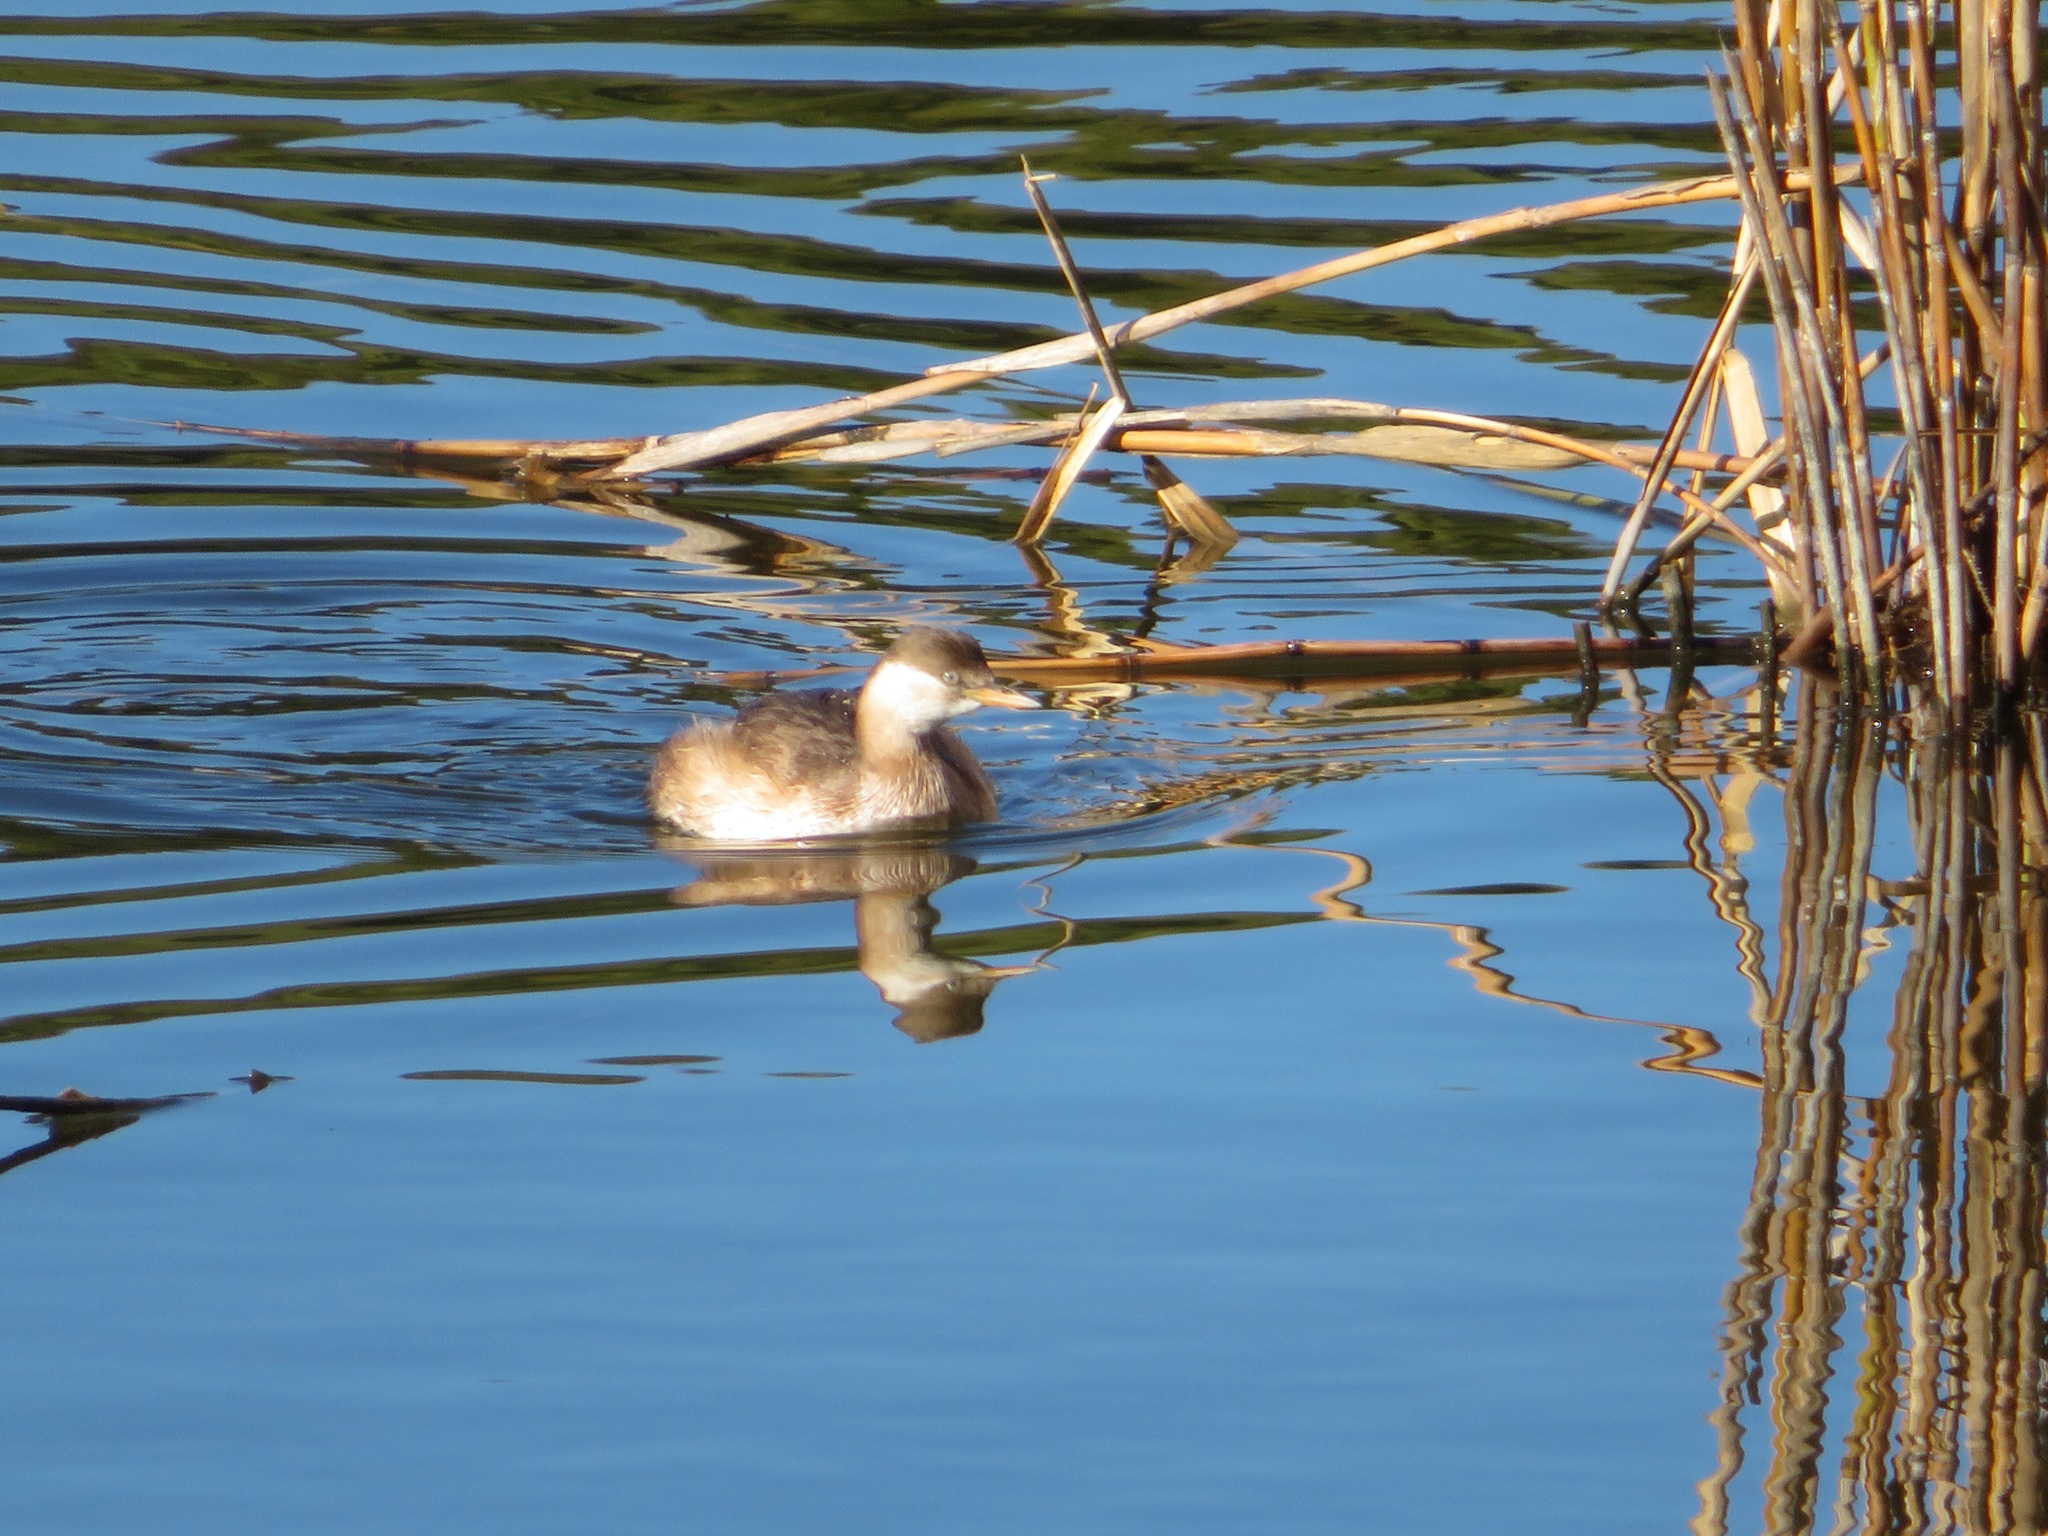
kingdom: Animalia
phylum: Chordata
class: Aves
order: Podicipediformes
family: Podicipedidae
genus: Tachybaptus
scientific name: Tachybaptus ruficollis
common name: Little grebe
